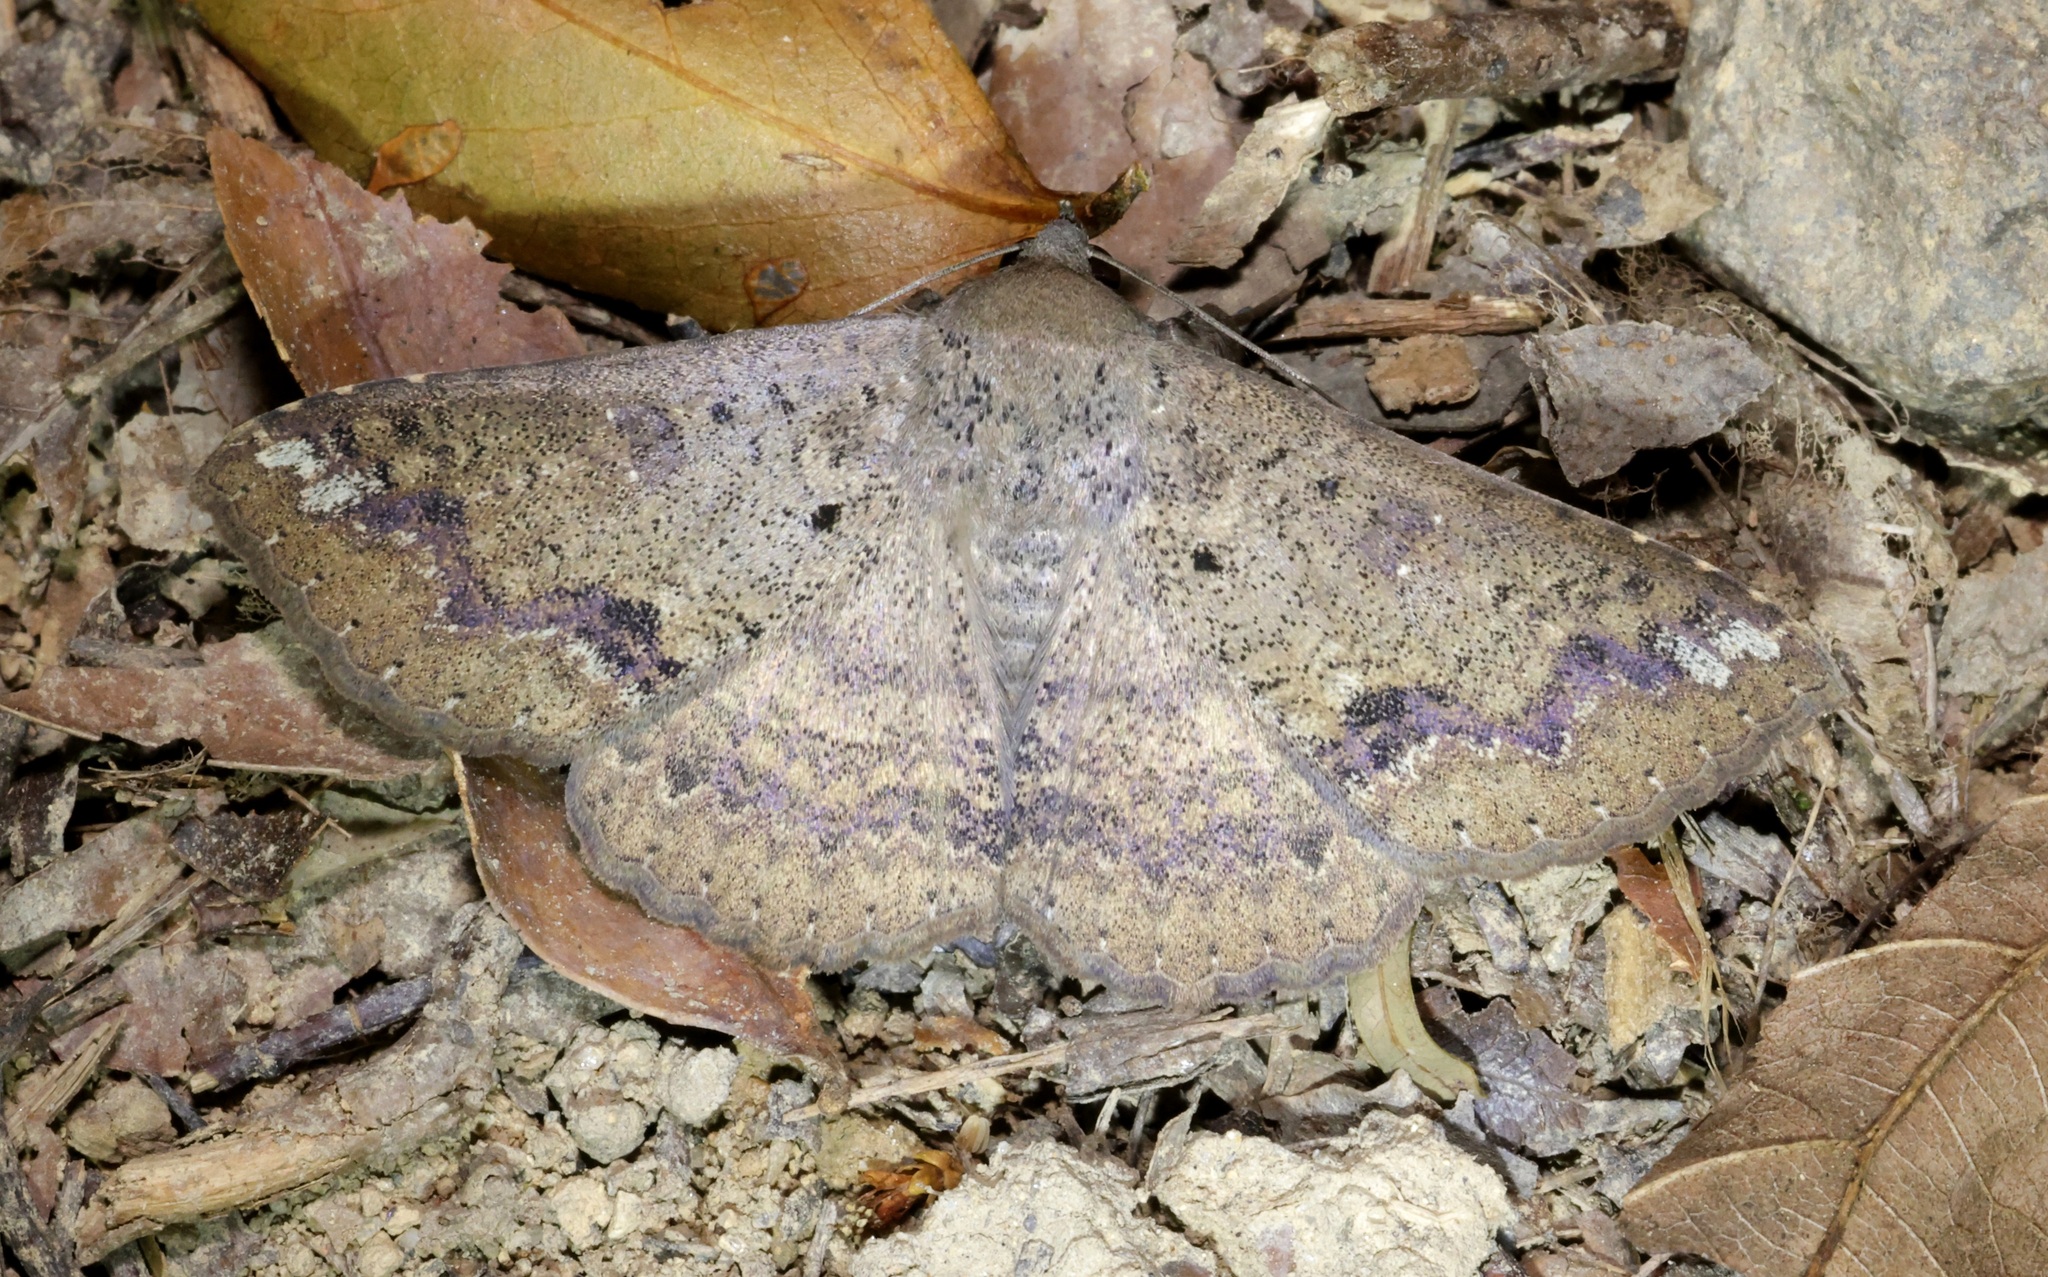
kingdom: Animalia
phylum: Arthropoda
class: Insecta
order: Lepidoptera
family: Erebidae
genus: Ericeia
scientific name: Ericeia inangulata
